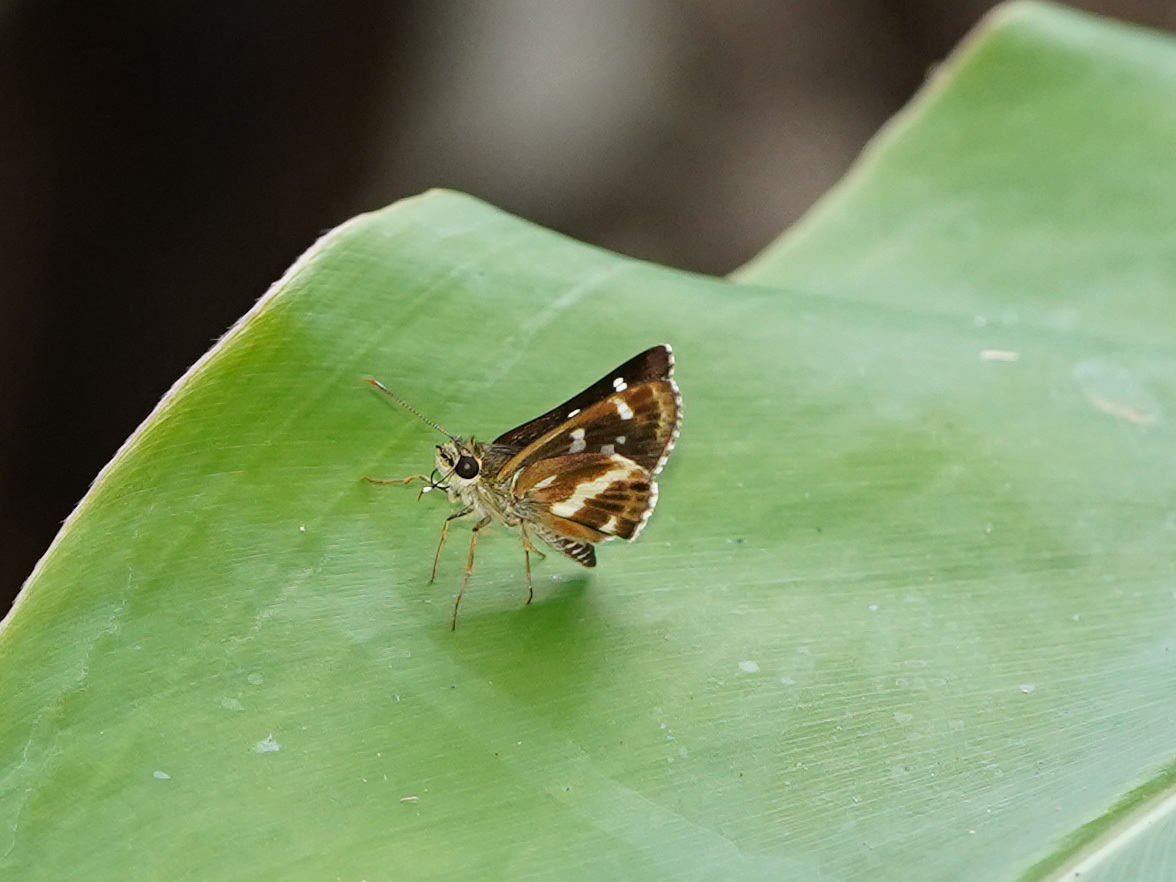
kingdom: Animalia
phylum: Arthropoda
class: Insecta
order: Lepidoptera
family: Hesperiidae
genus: Sebastonyma
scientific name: Sebastonyma pudens
